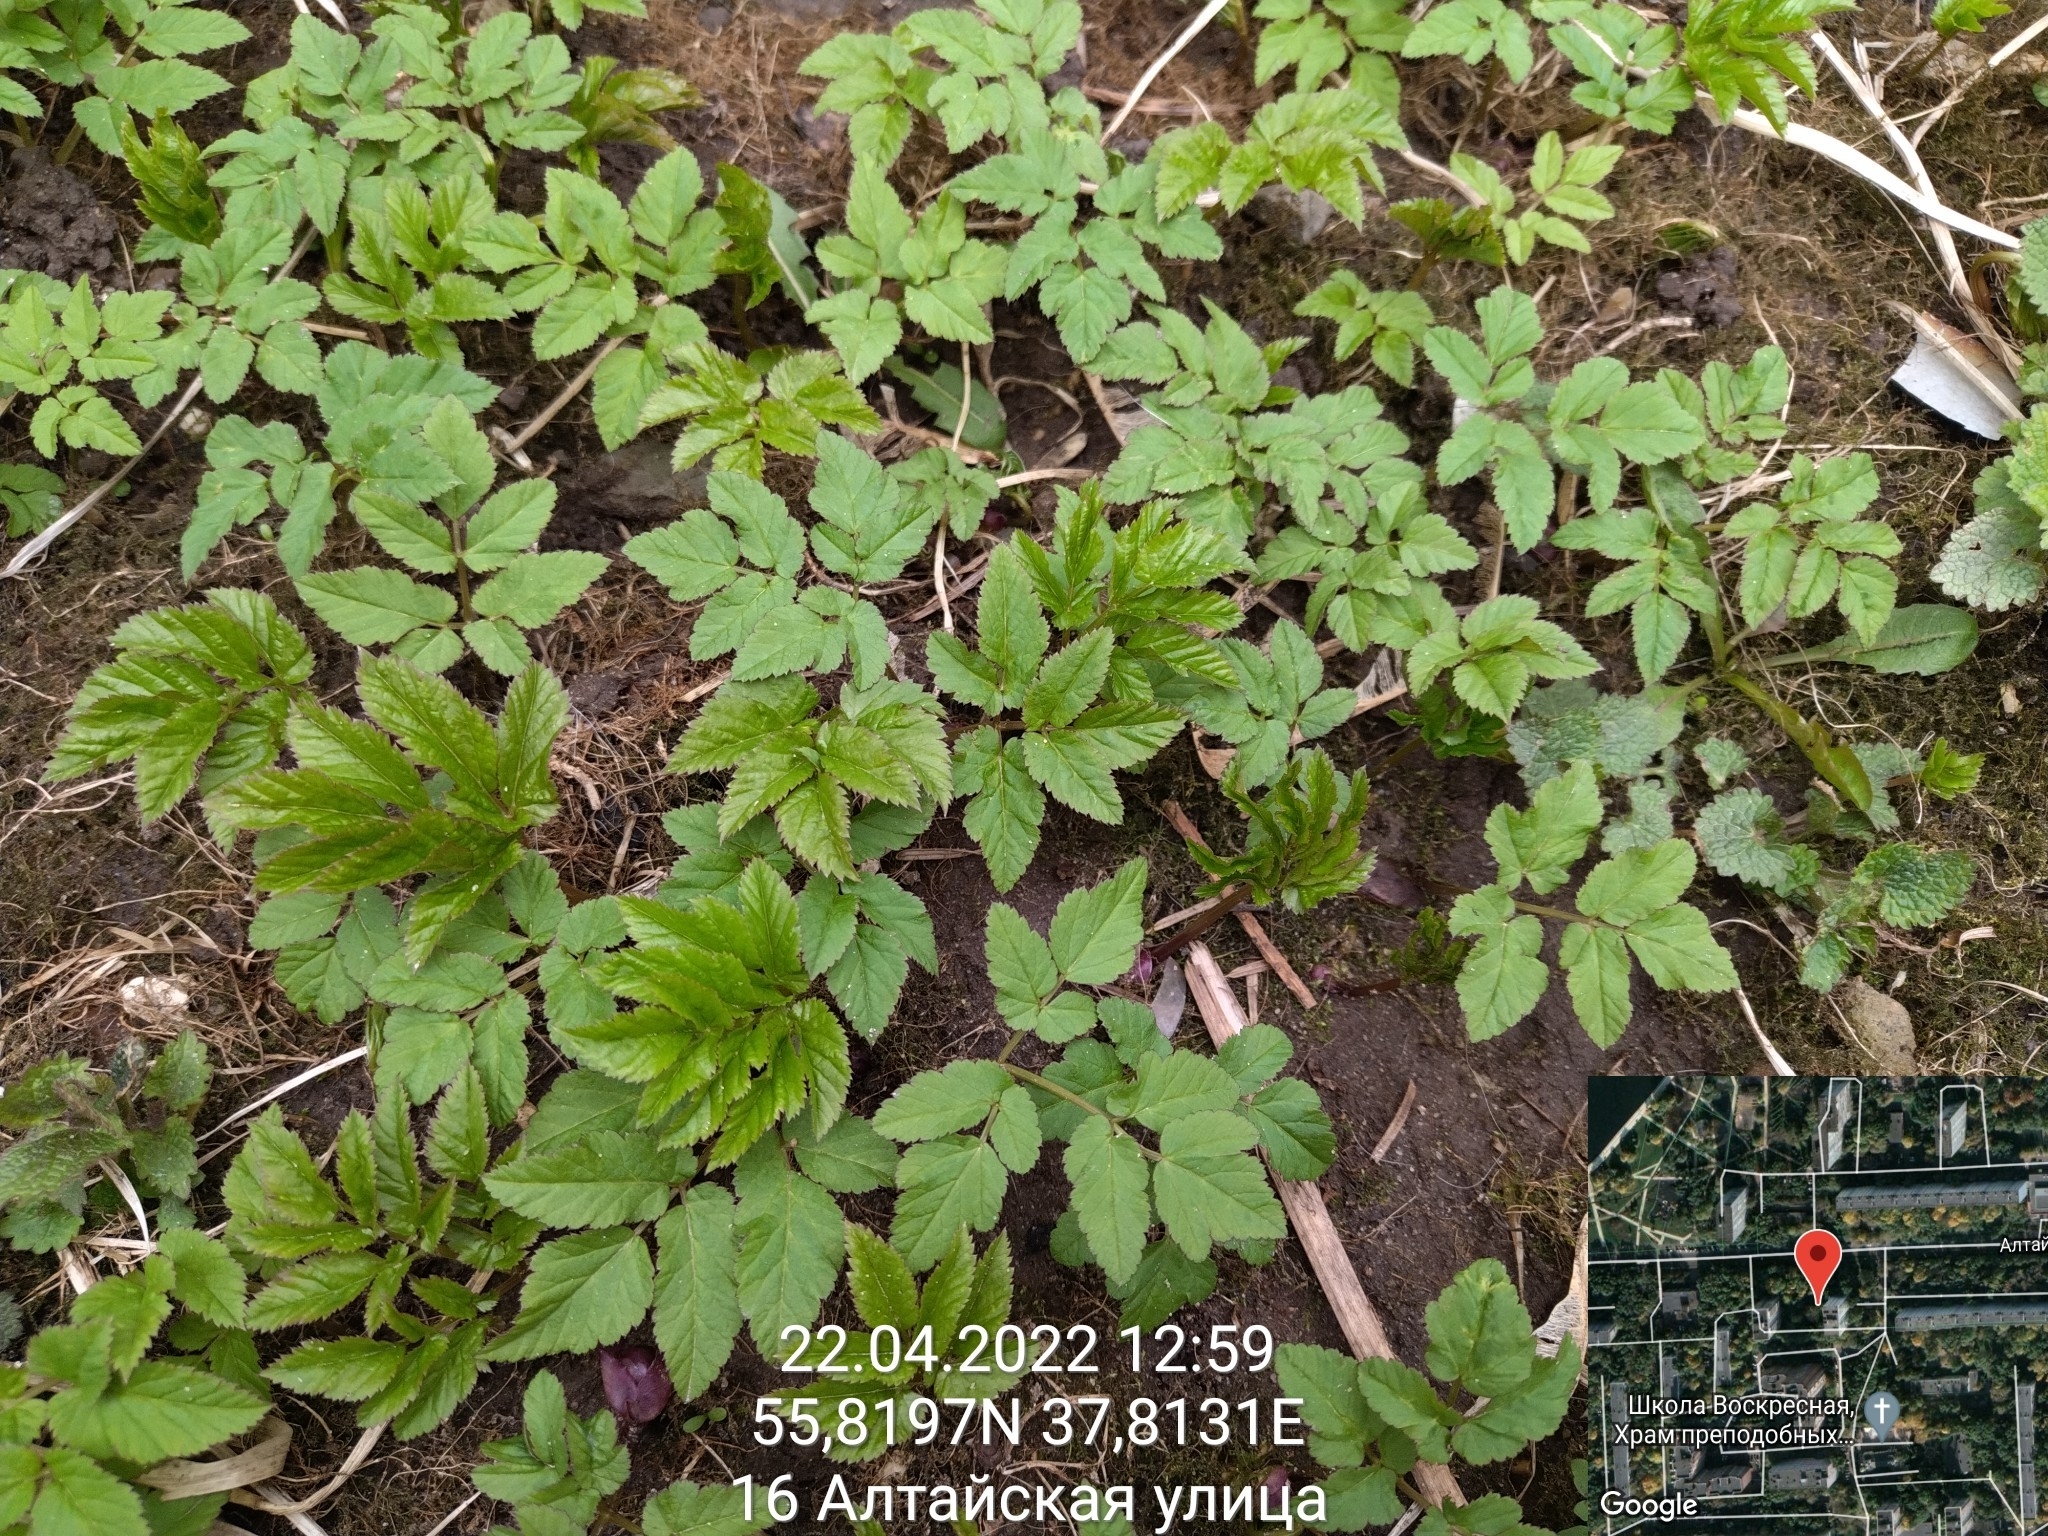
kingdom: Plantae
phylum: Tracheophyta
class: Magnoliopsida
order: Apiales
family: Apiaceae
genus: Aegopodium
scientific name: Aegopodium podagraria
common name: Ground-elder
